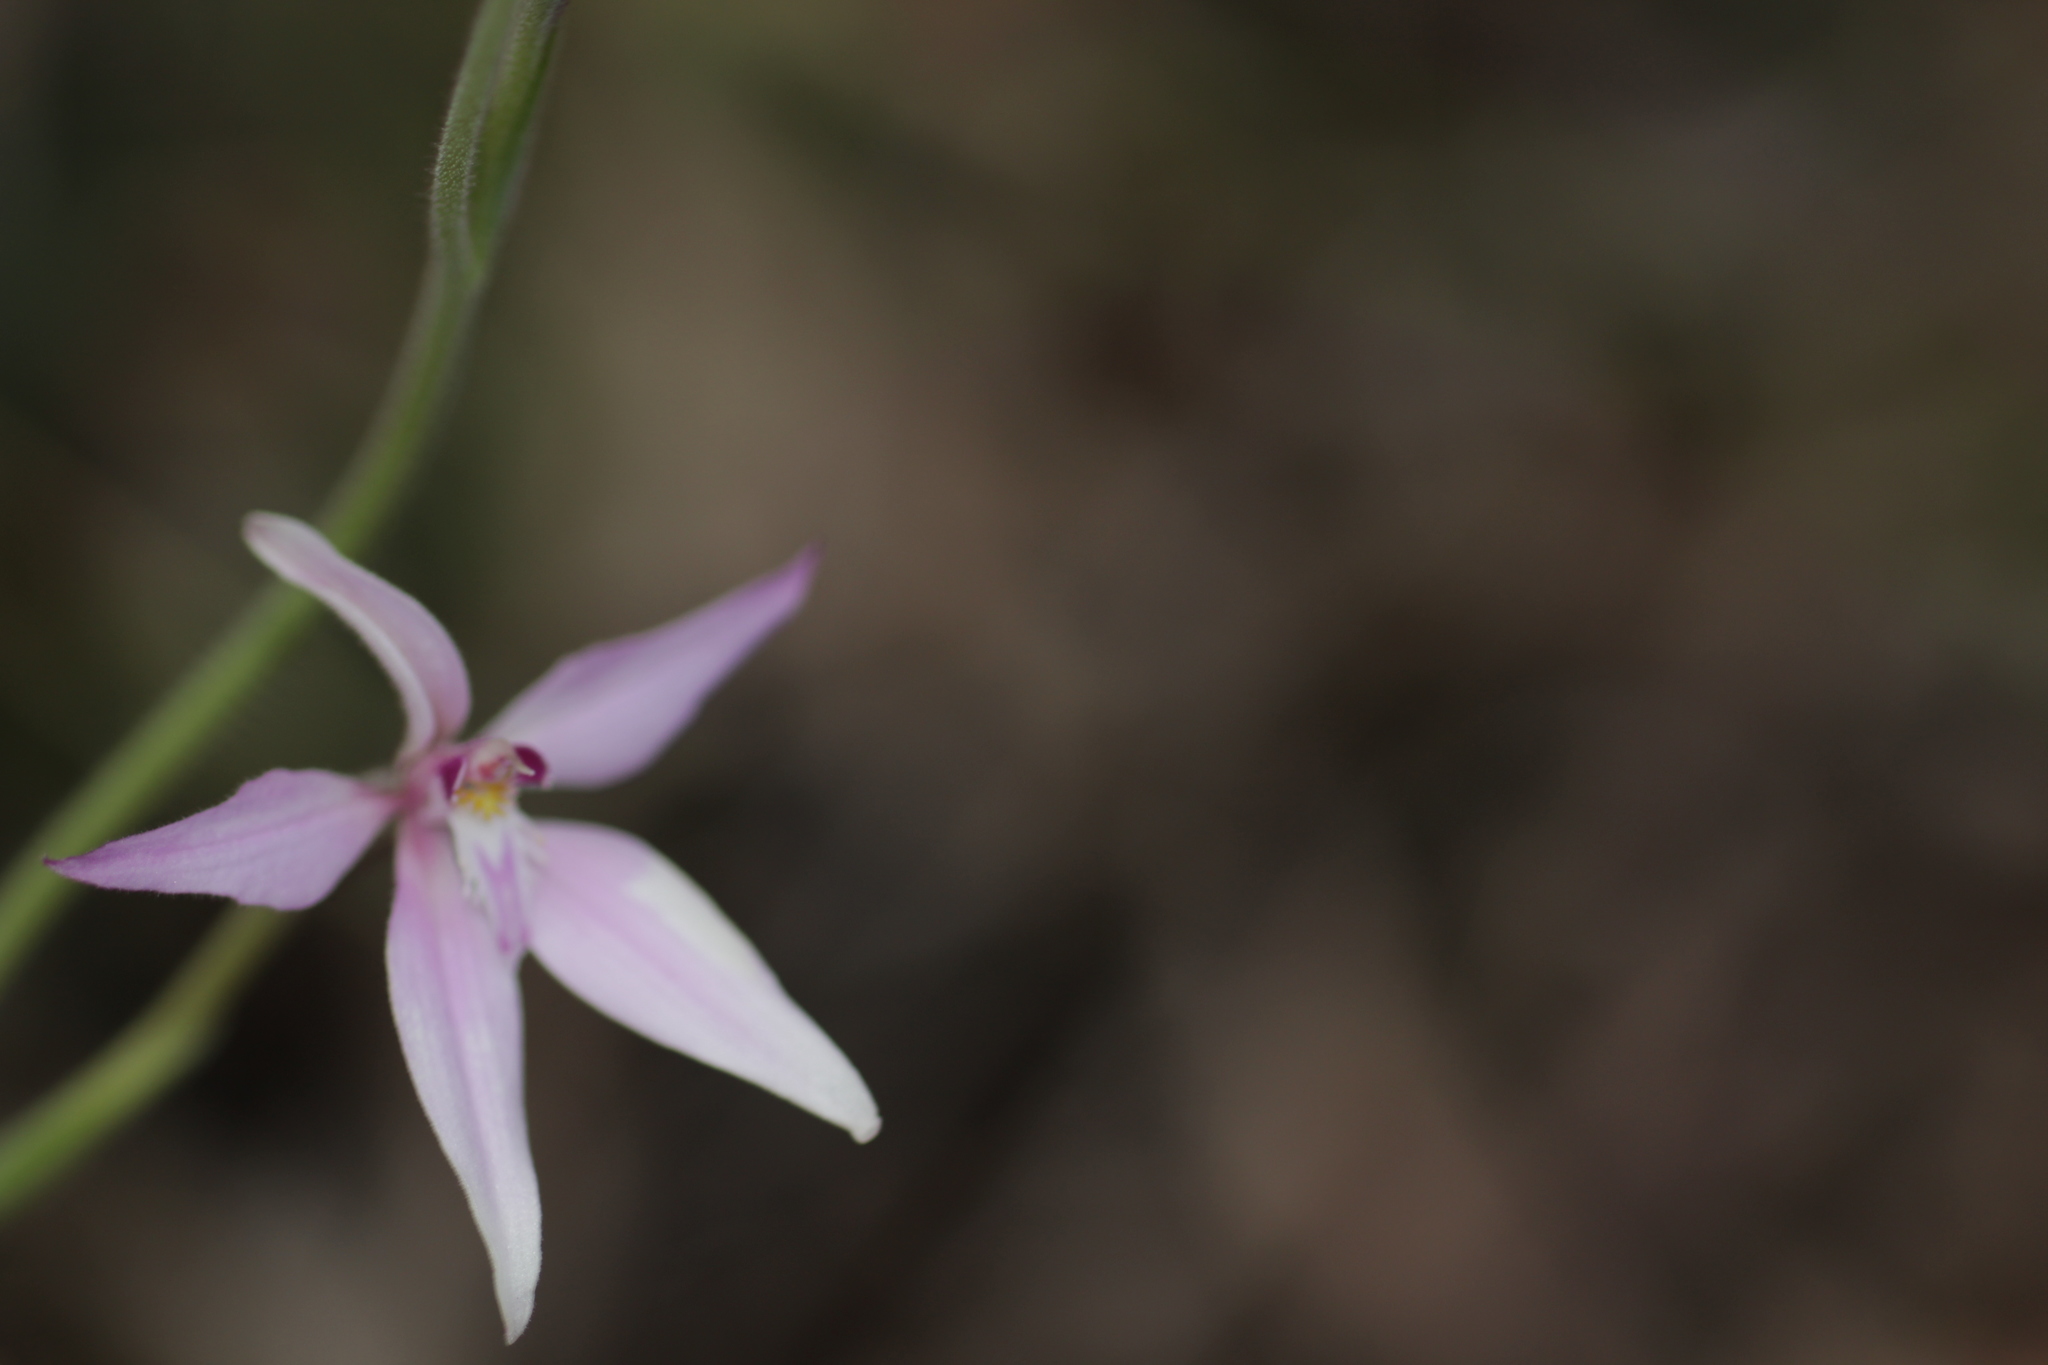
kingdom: Plantae
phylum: Tracheophyta
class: Liliopsida
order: Asparagales
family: Orchidaceae
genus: Caladenia
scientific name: Caladenia latifolia
